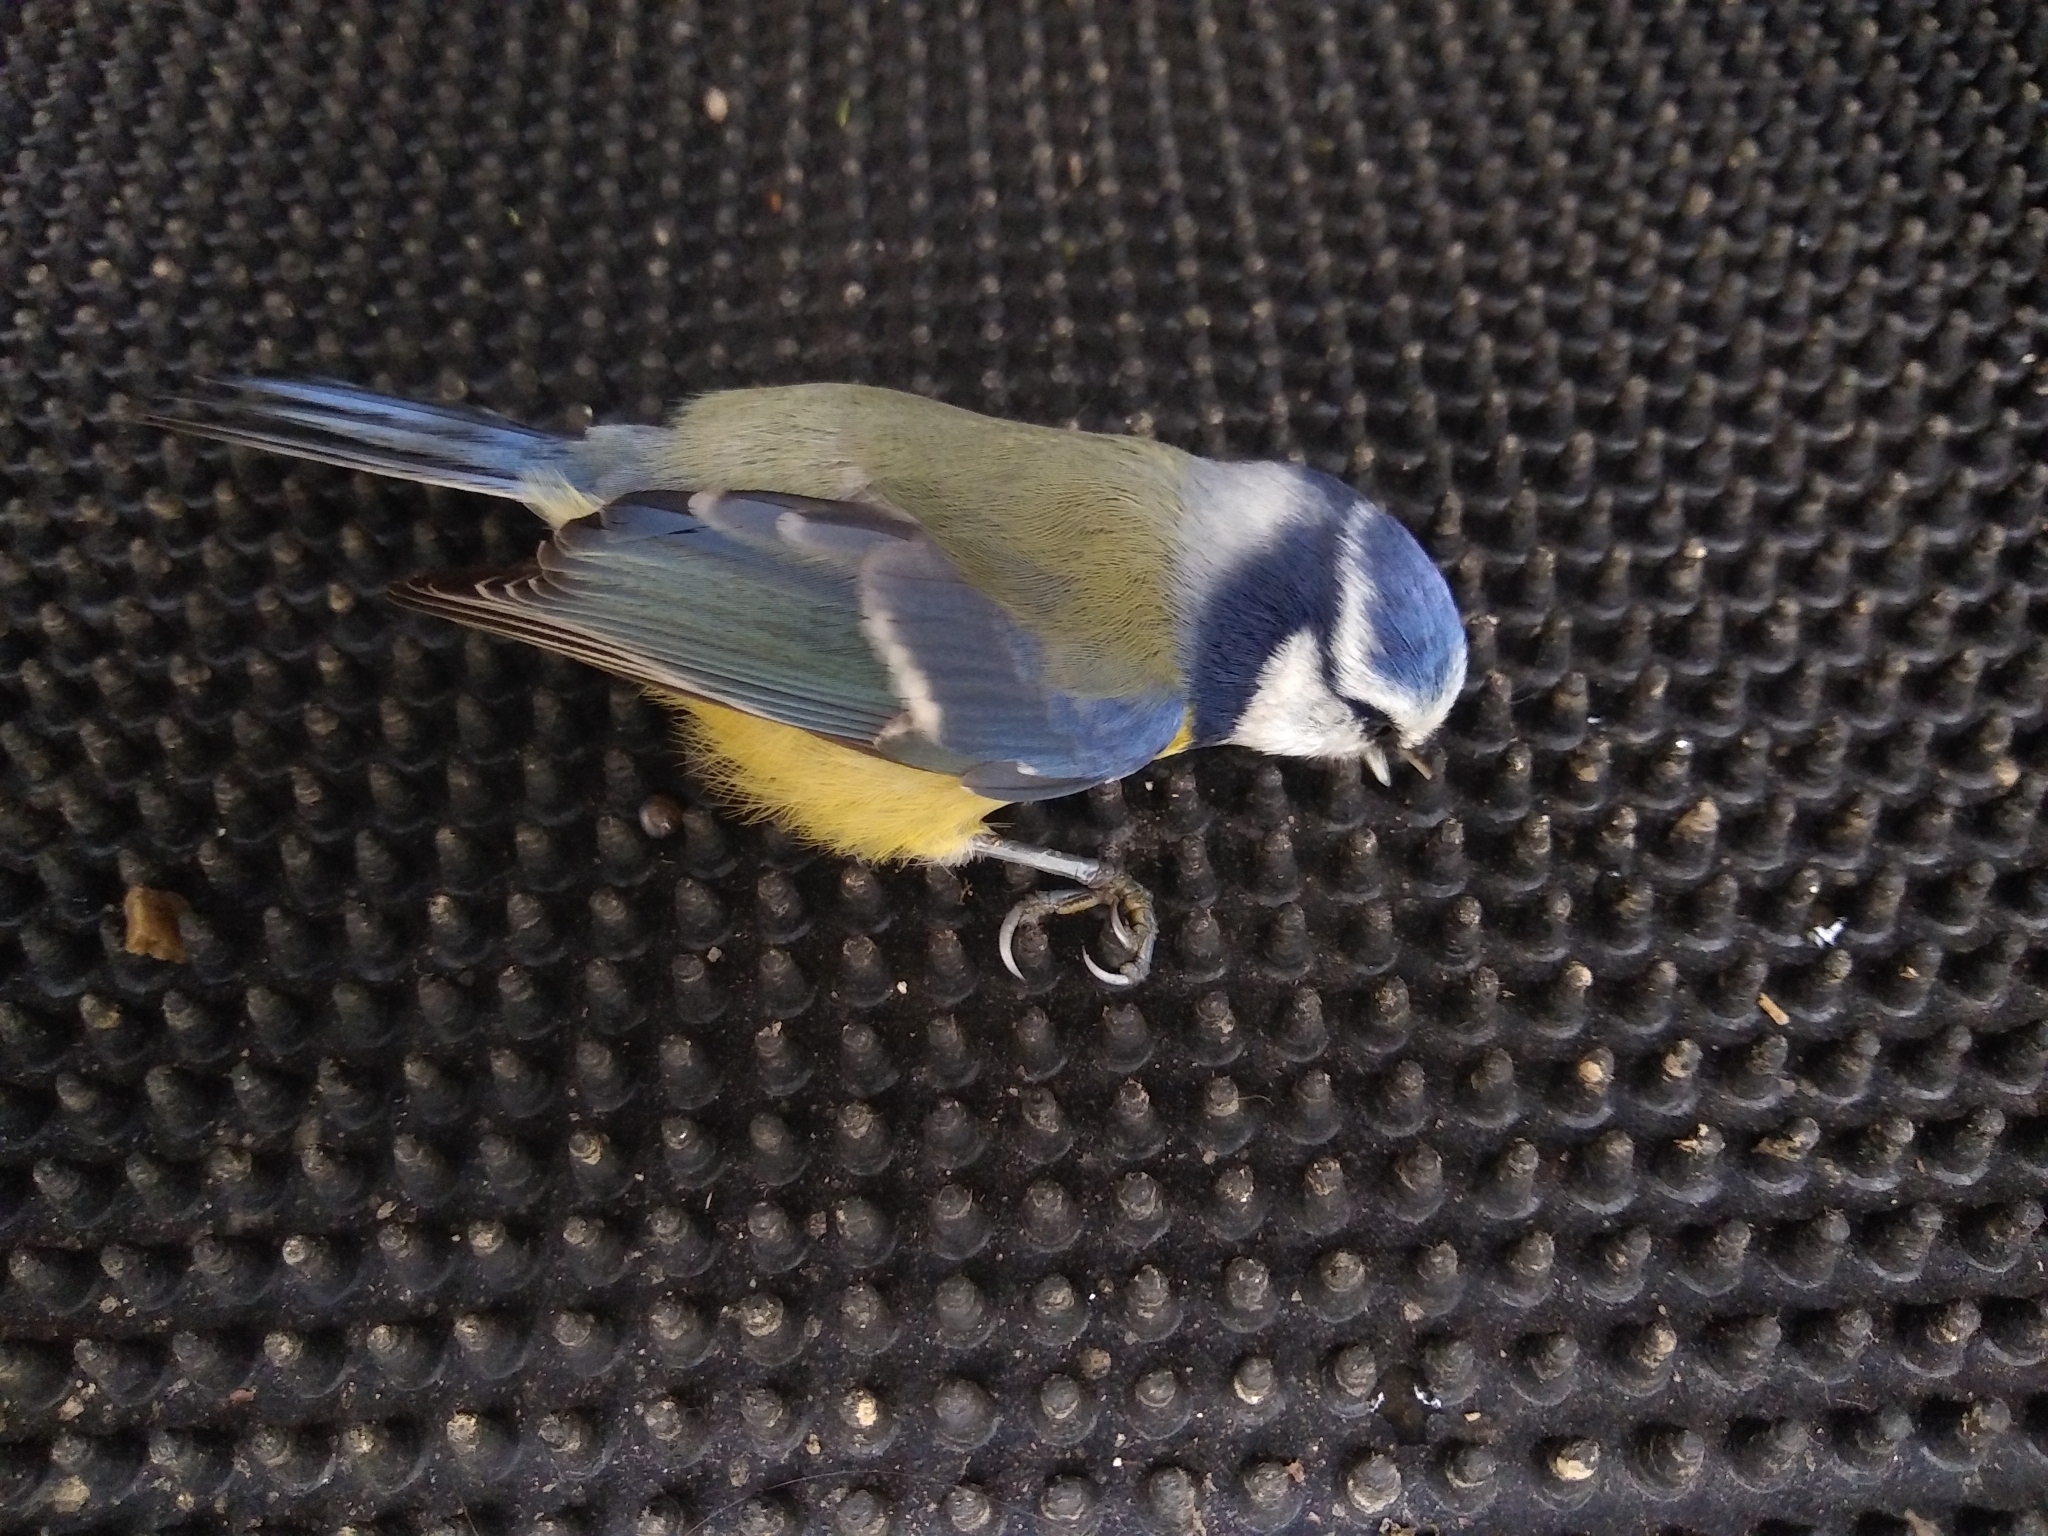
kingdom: Animalia
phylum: Chordata
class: Aves
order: Passeriformes
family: Paridae
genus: Cyanistes
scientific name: Cyanistes caeruleus
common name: Eurasian blue tit
